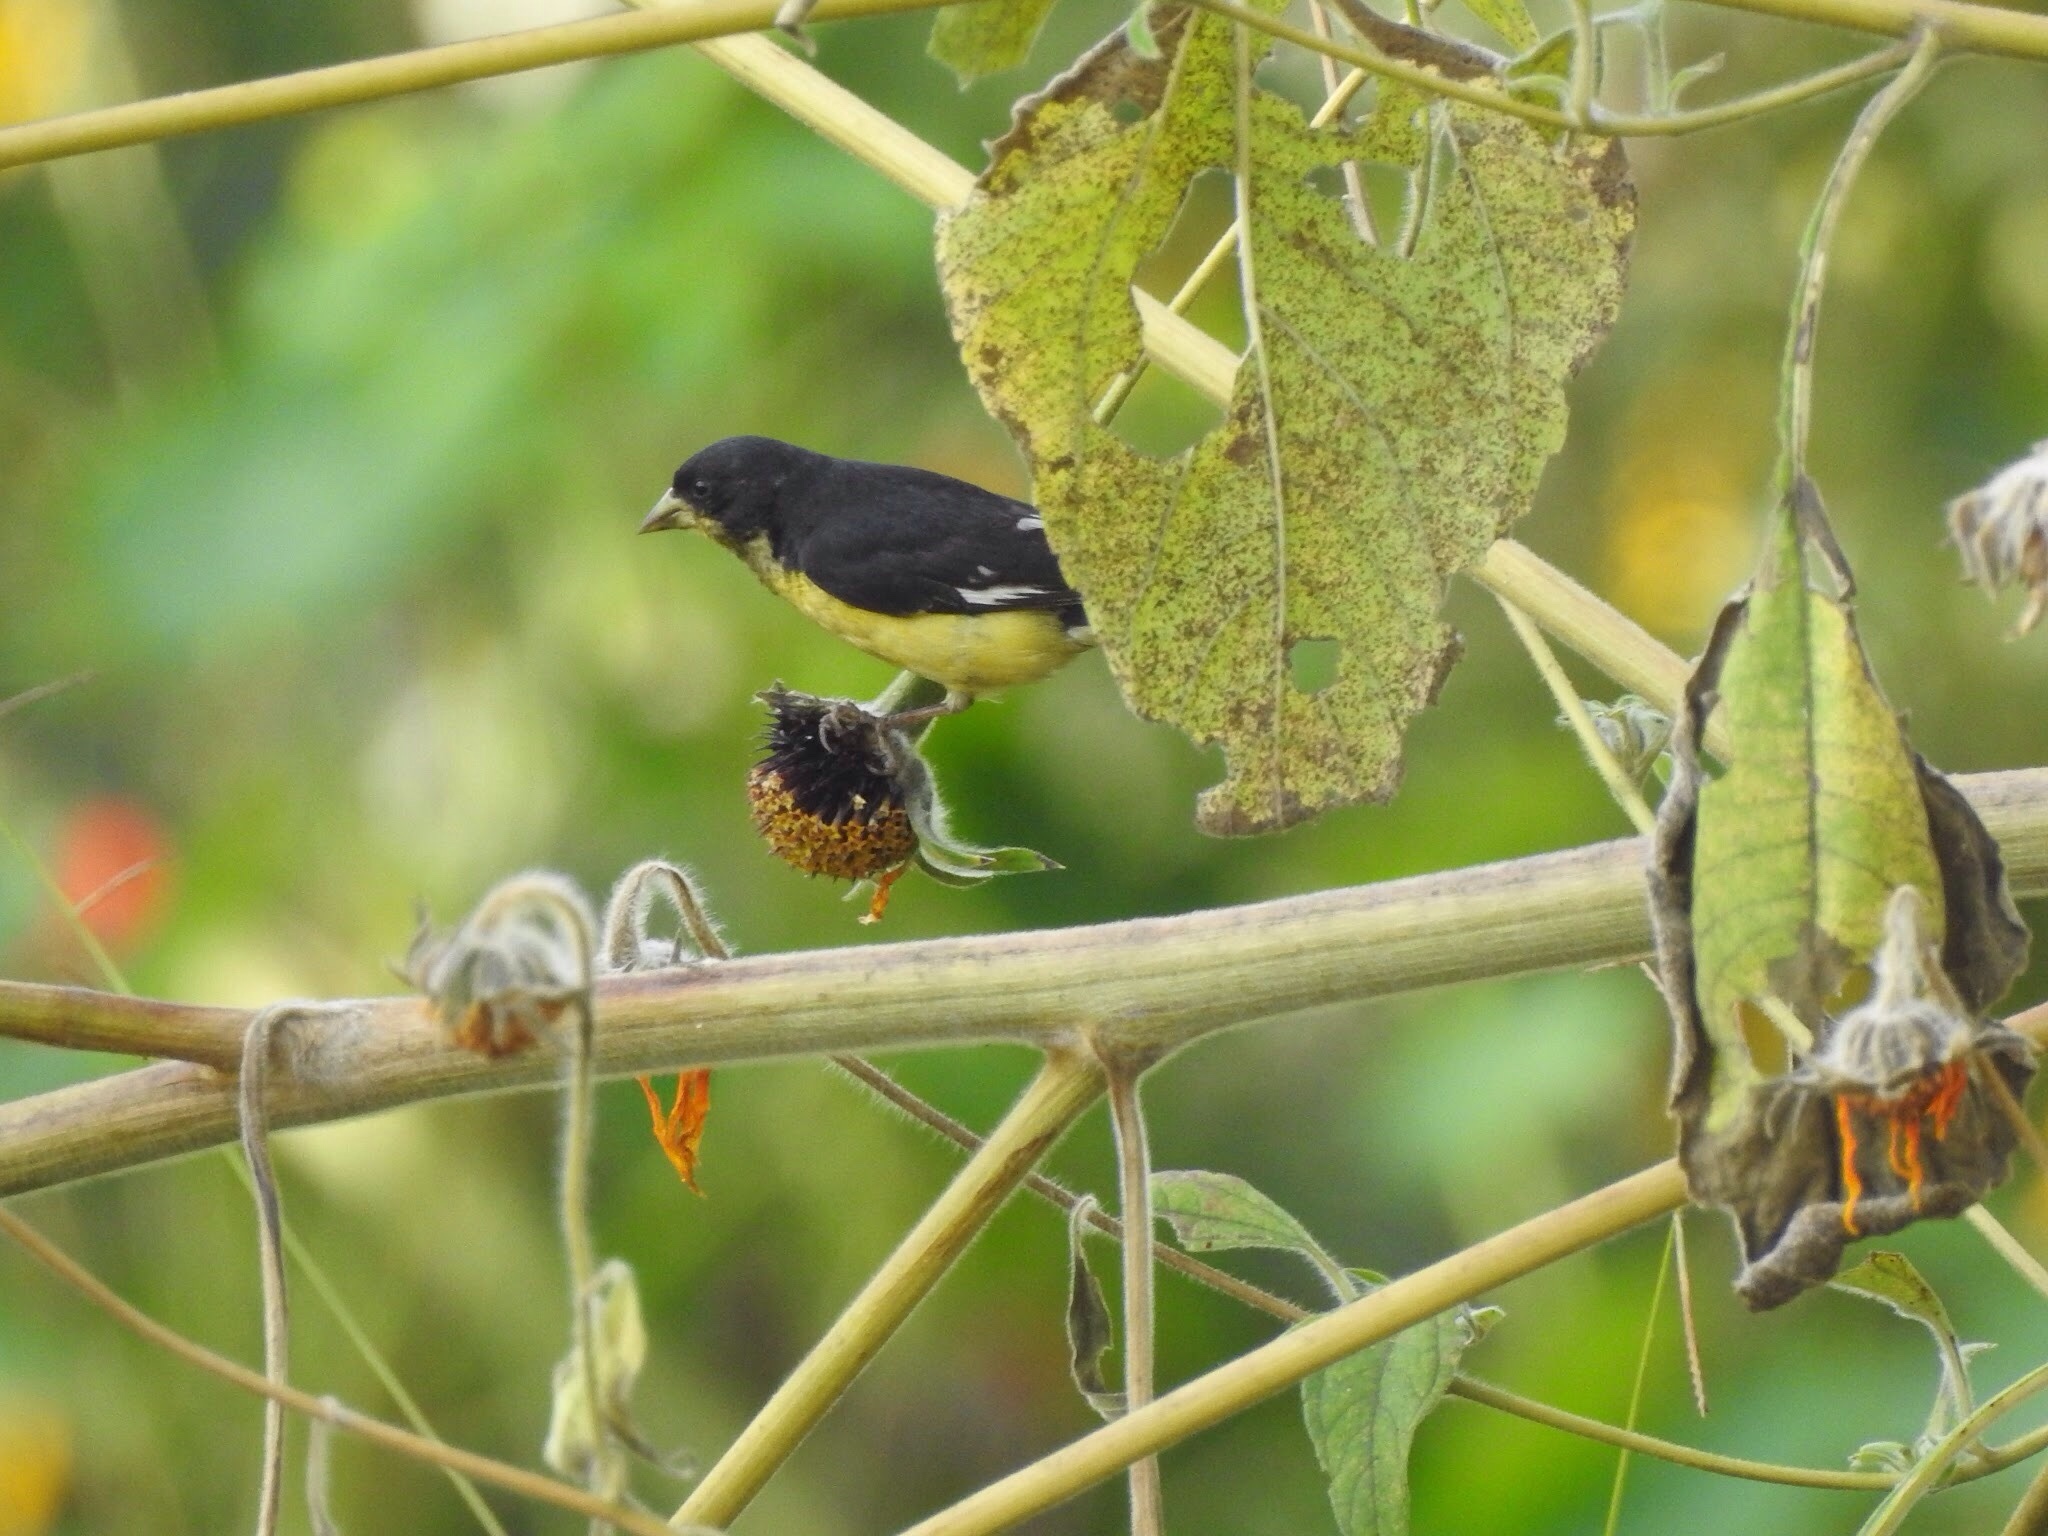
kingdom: Animalia
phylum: Chordata
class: Aves
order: Passeriformes
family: Fringillidae
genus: Spinus
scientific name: Spinus psaltria
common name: Lesser goldfinch
